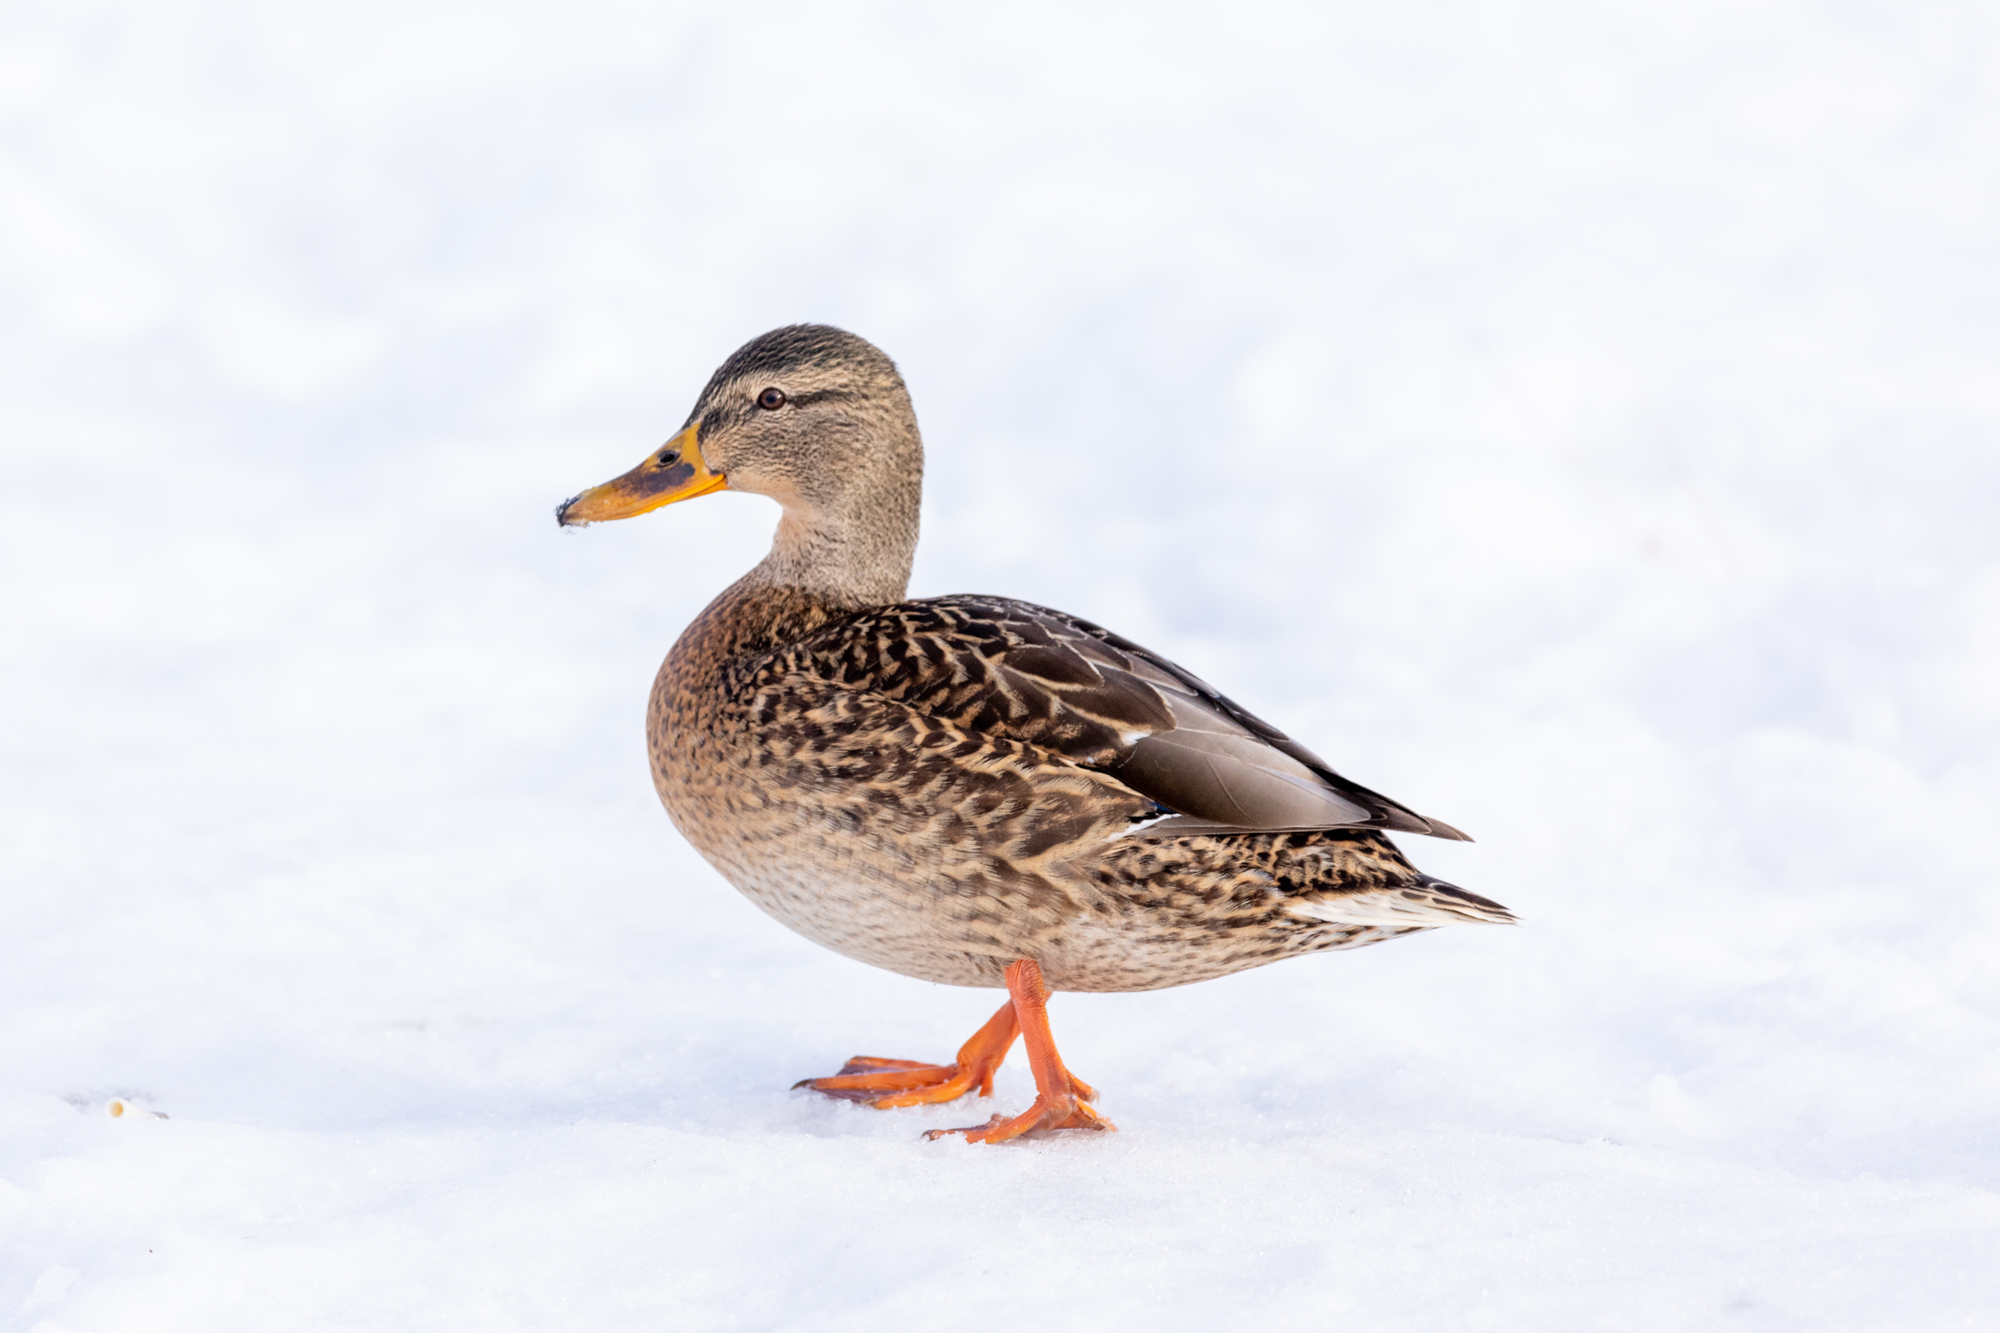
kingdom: Animalia
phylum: Chordata
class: Aves
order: Anseriformes
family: Anatidae
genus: Anas
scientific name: Anas platyrhynchos
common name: Mallard
